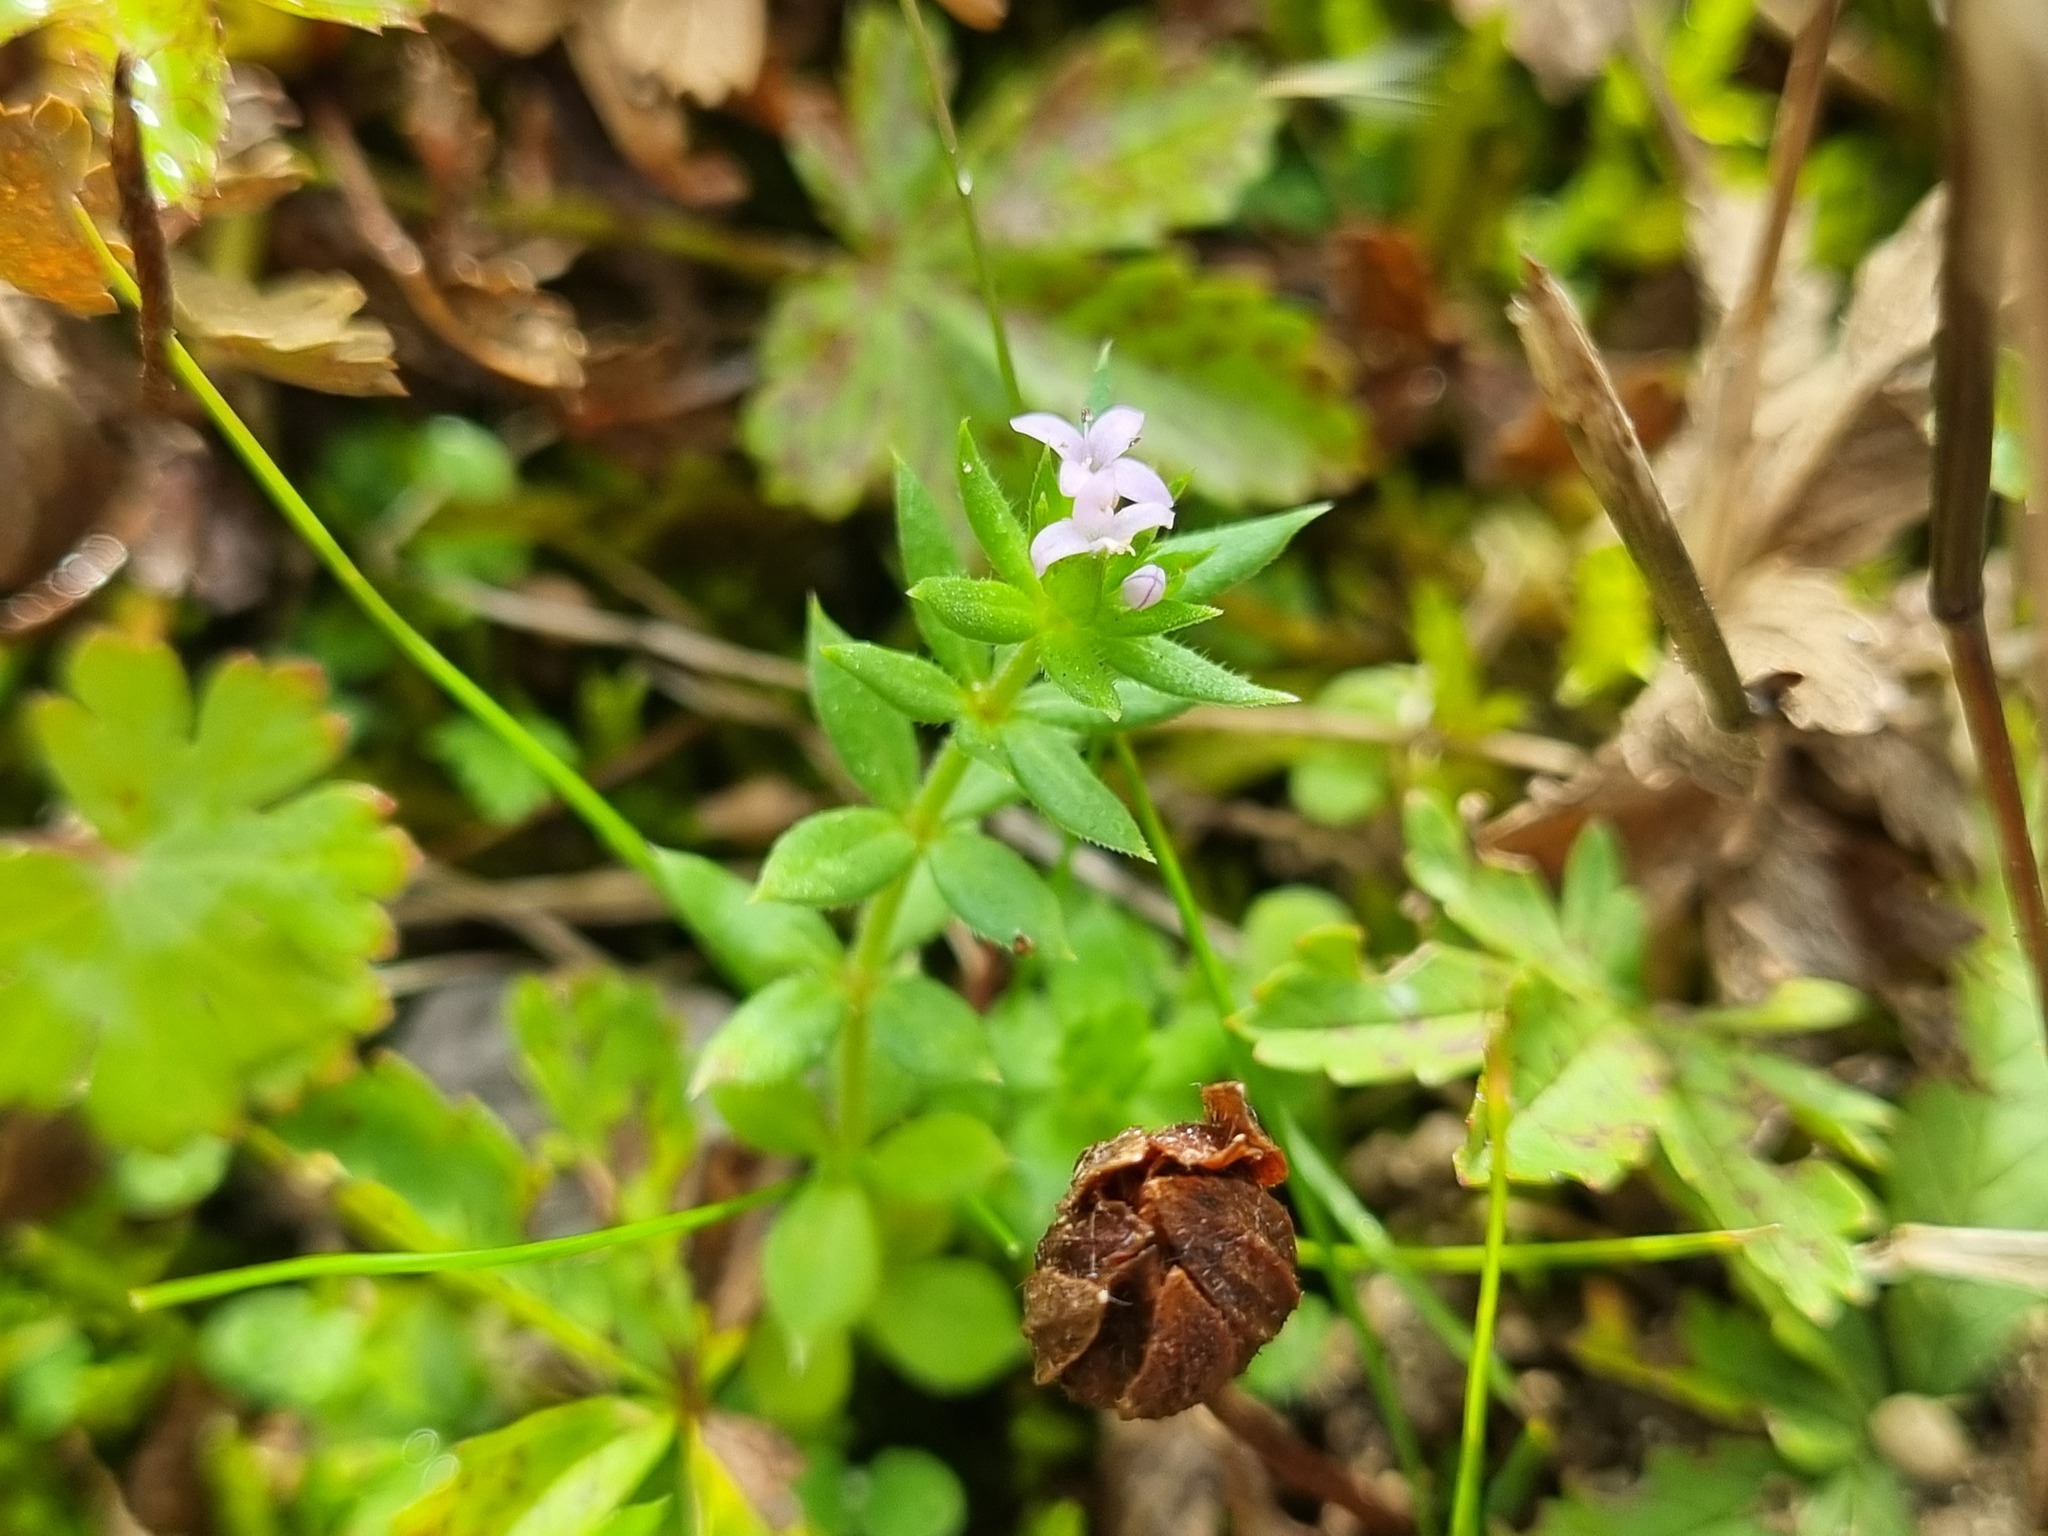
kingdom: Plantae
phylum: Tracheophyta
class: Magnoliopsida
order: Gentianales
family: Rubiaceae
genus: Sherardia
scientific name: Sherardia arvensis
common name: Field madder
